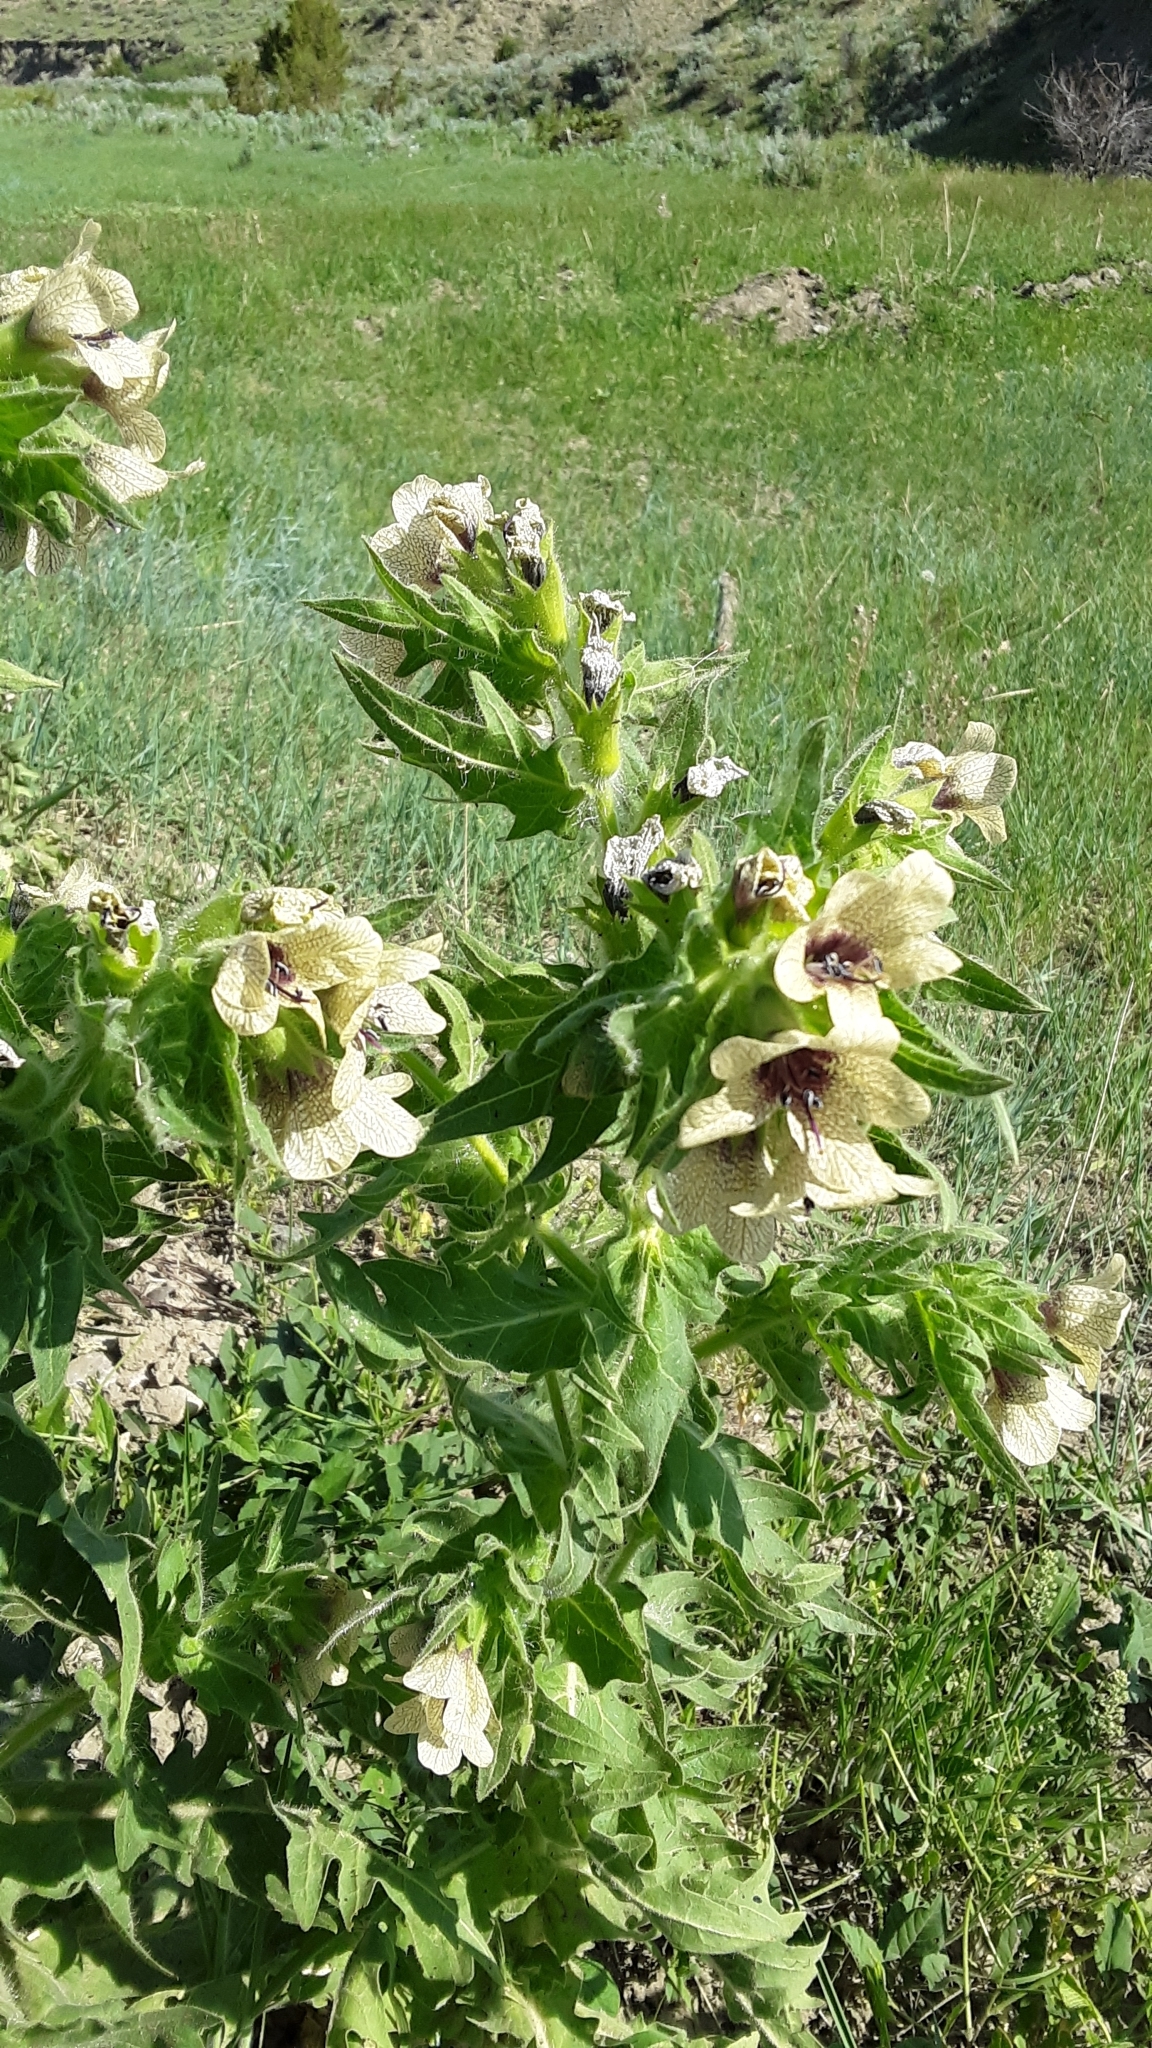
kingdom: Plantae
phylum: Tracheophyta
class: Magnoliopsida
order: Solanales
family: Solanaceae
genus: Hyoscyamus
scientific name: Hyoscyamus niger
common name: Henbane
